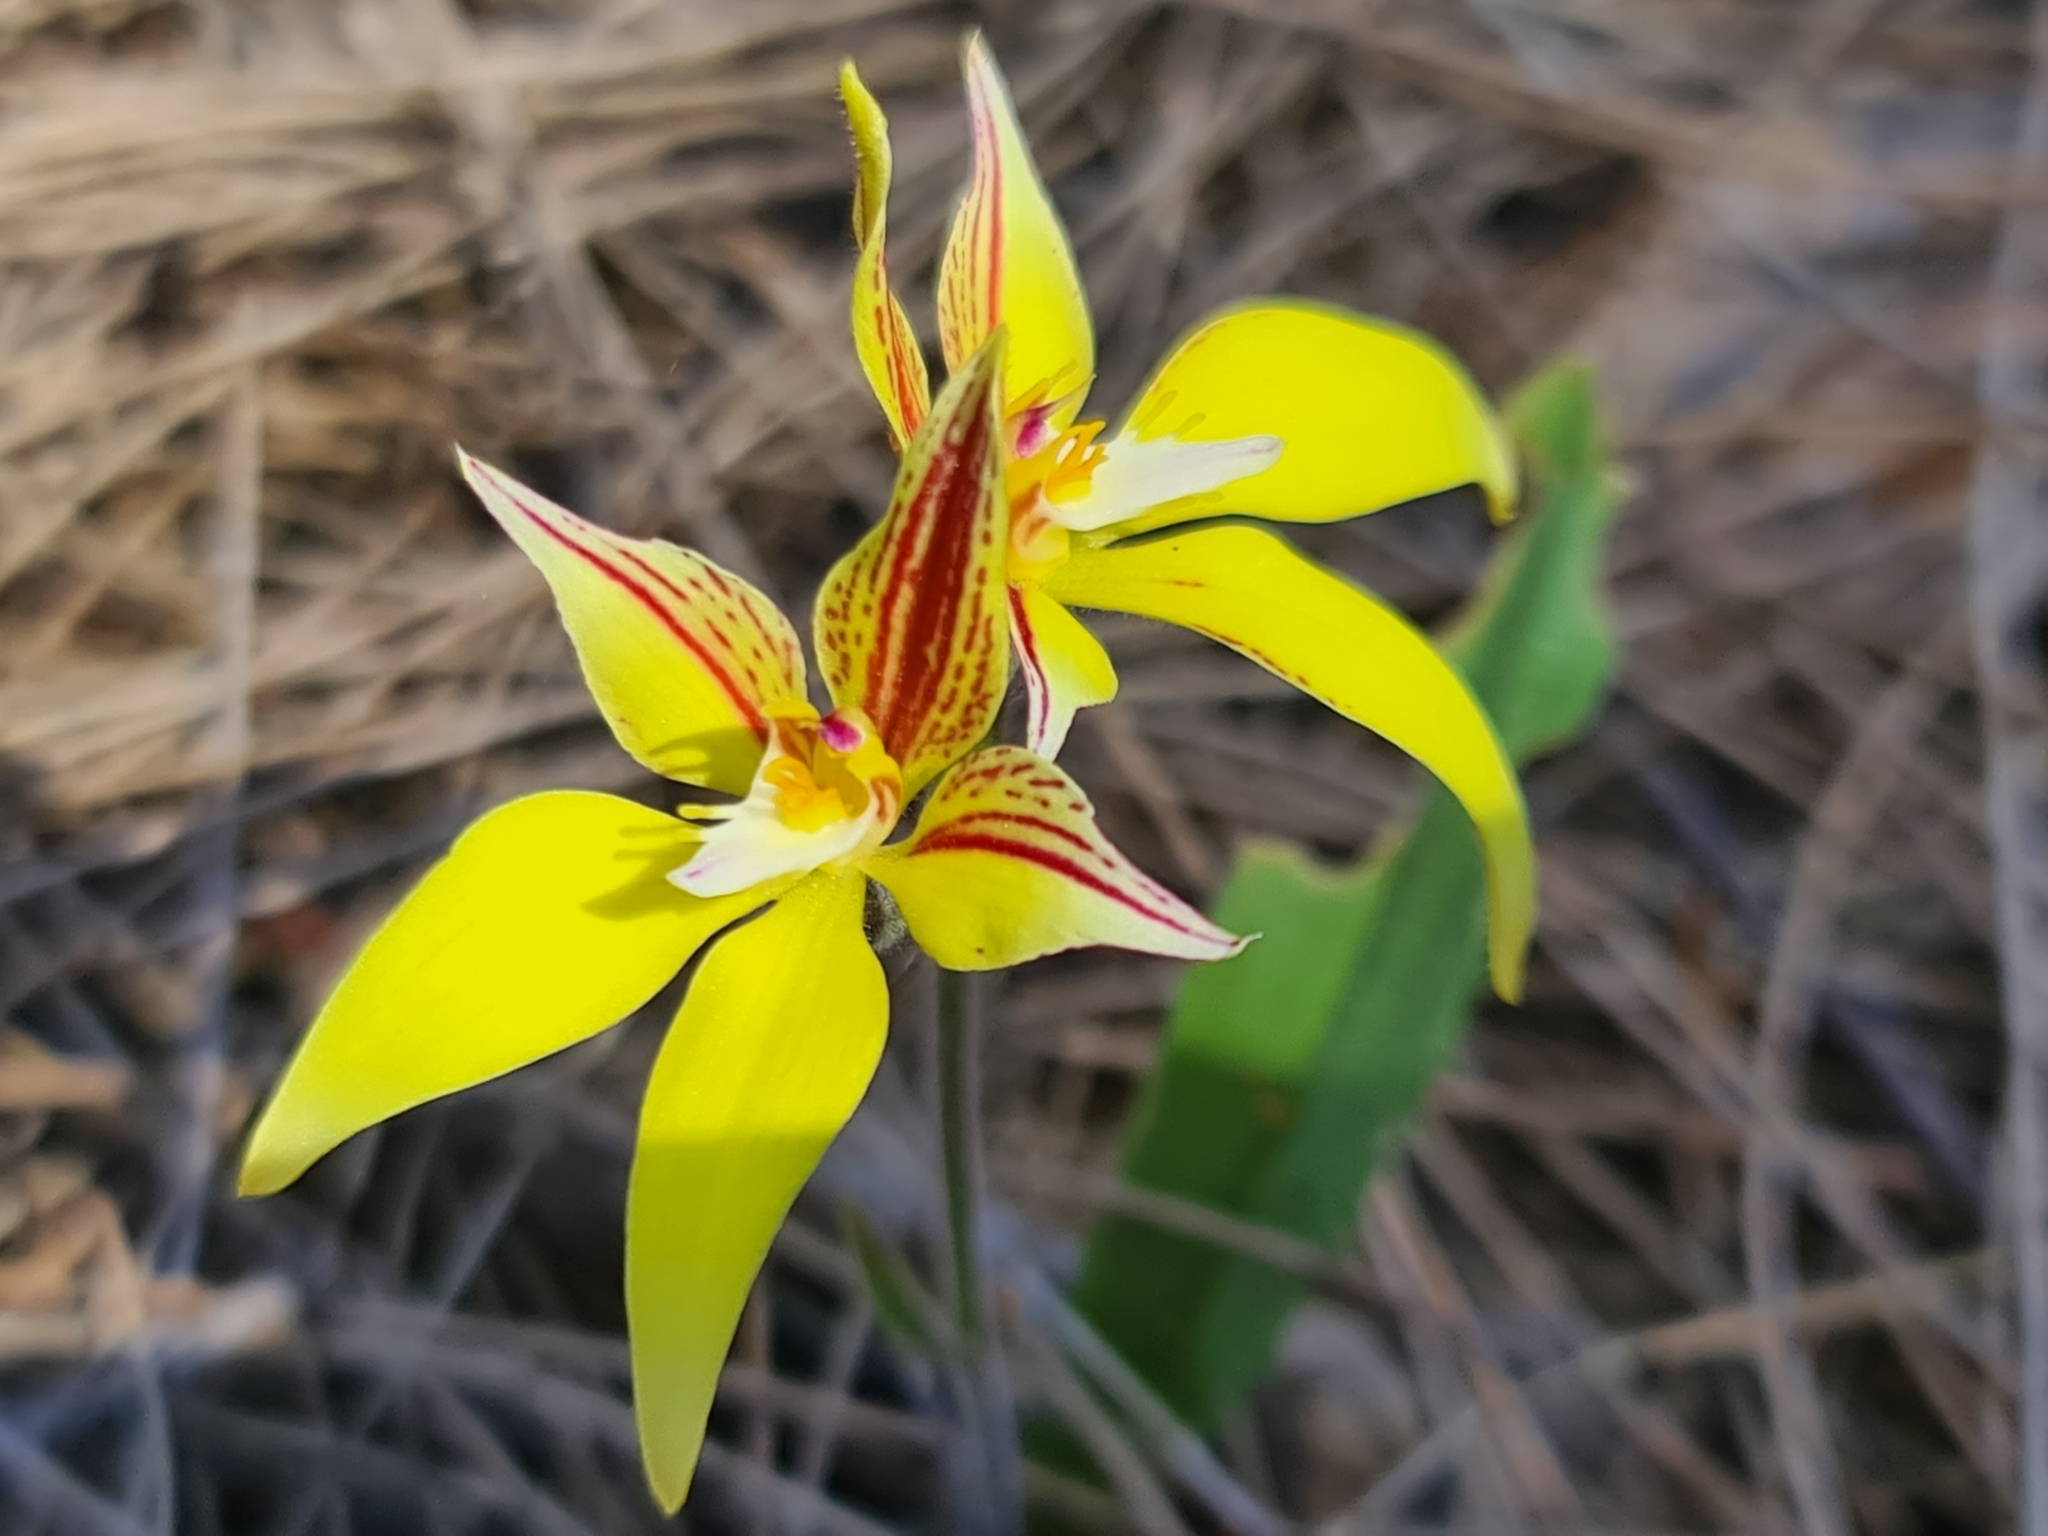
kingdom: Plantae
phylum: Tracheophyta
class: Liliopsida
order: Asparagales
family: Orchidaceae
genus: Caladenia
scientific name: Caladenia flava
